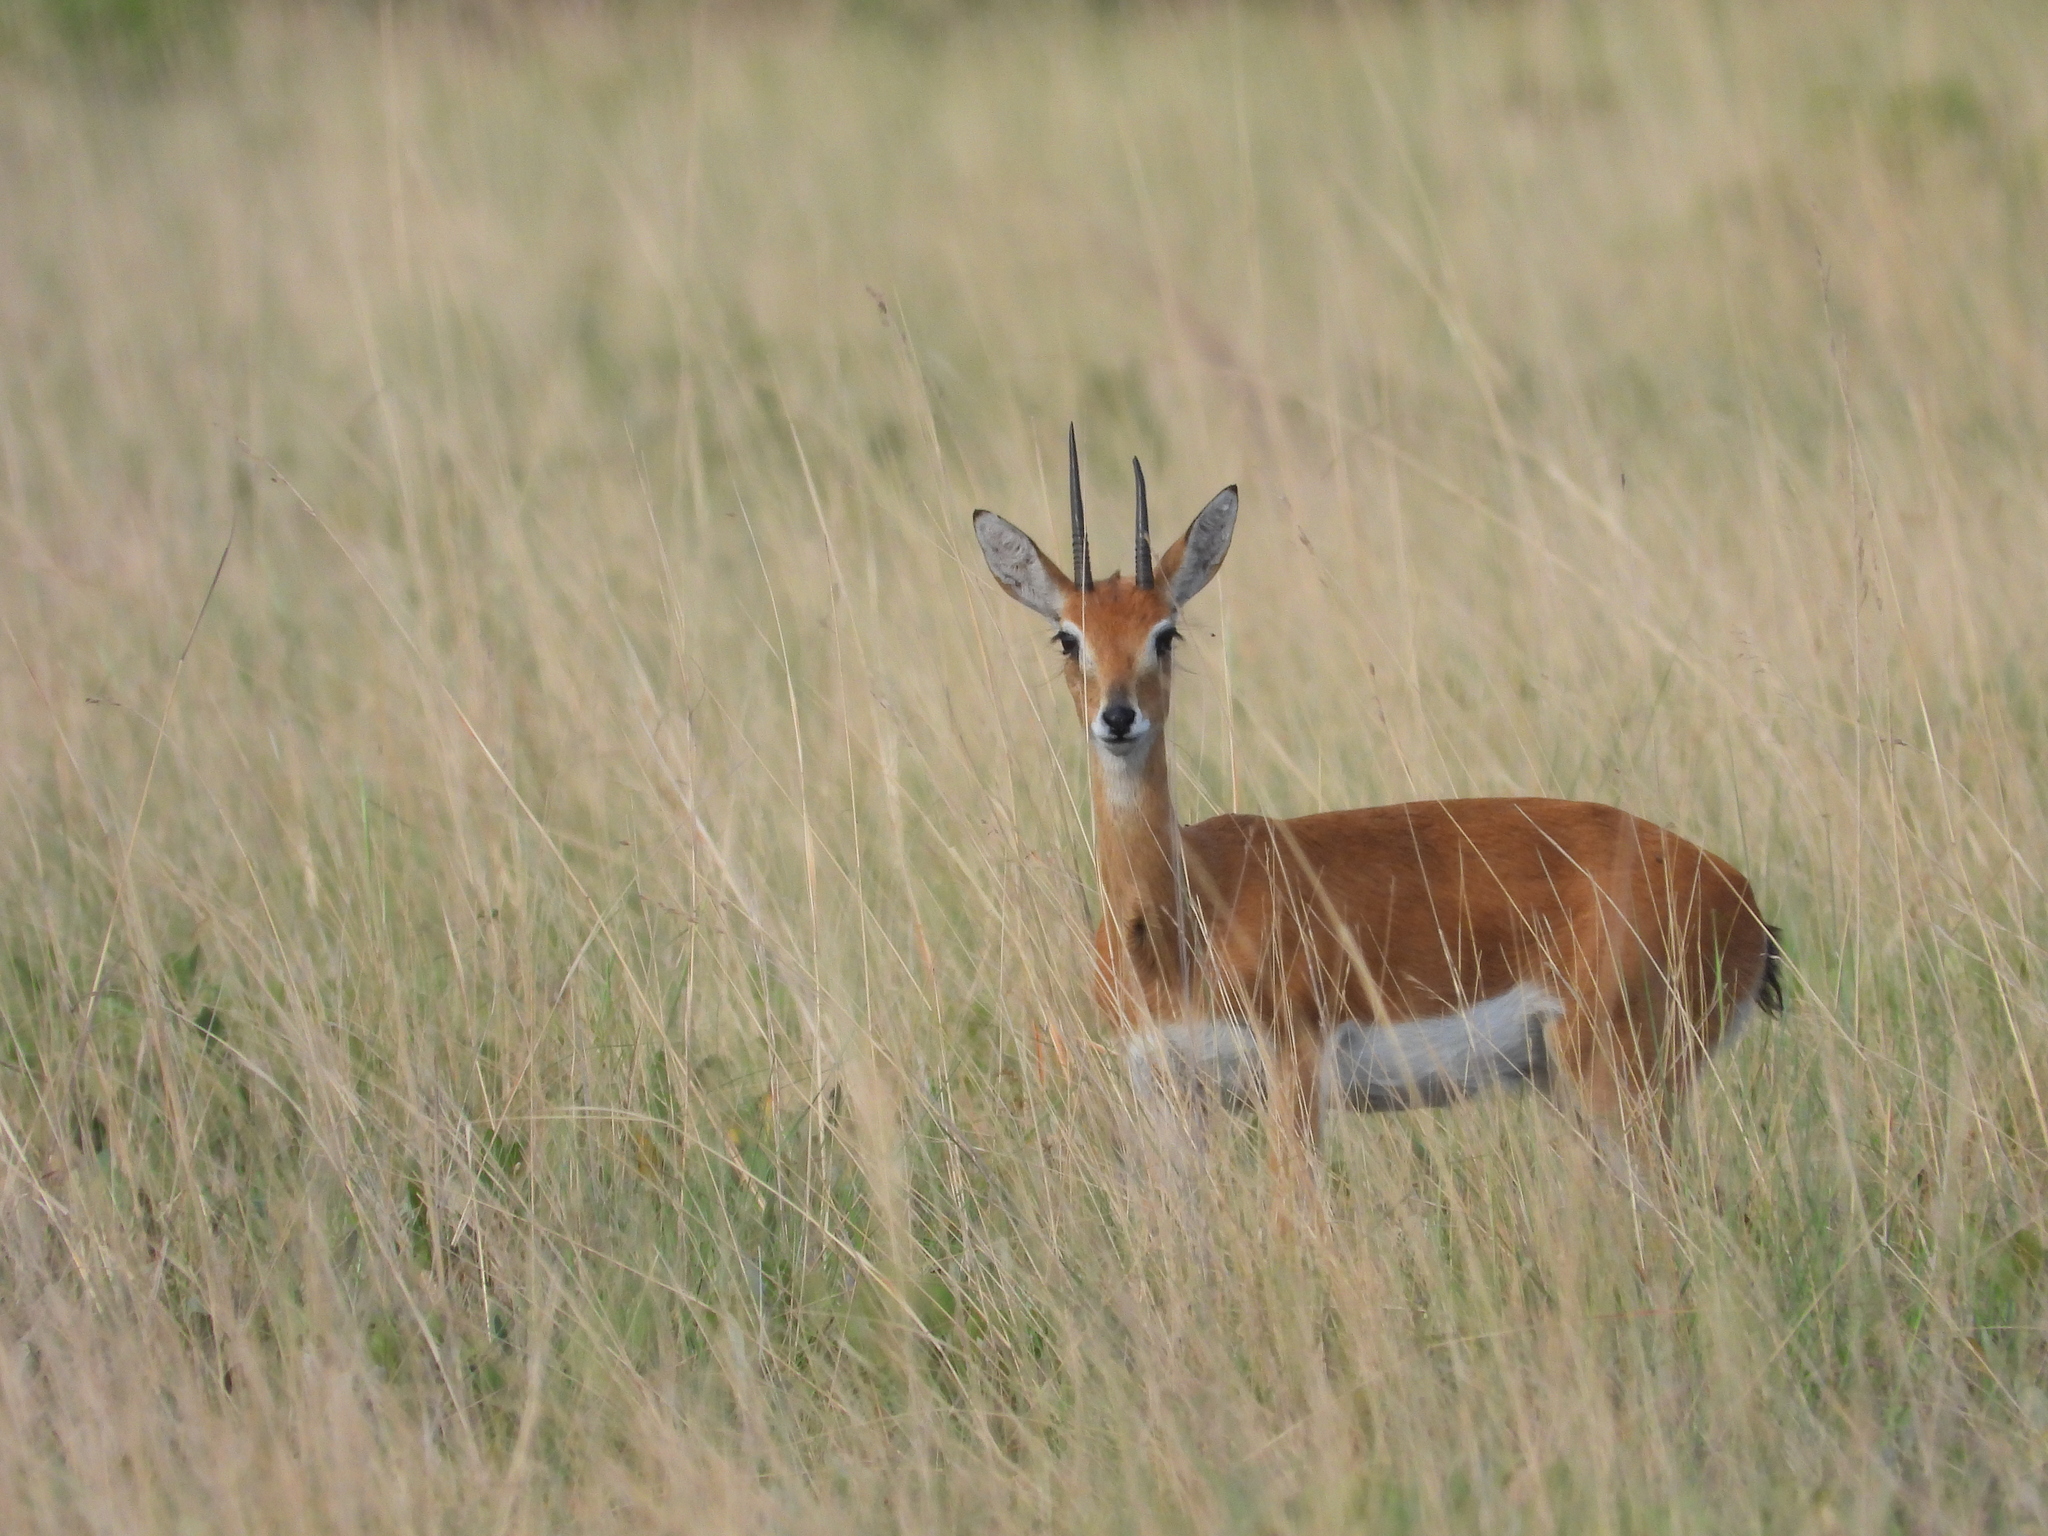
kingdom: Animalia
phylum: Chordata
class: Mammalia
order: Artiodactyla
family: Bovidae
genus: Ourebia
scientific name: Ourebia ourebi
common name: Oribi
